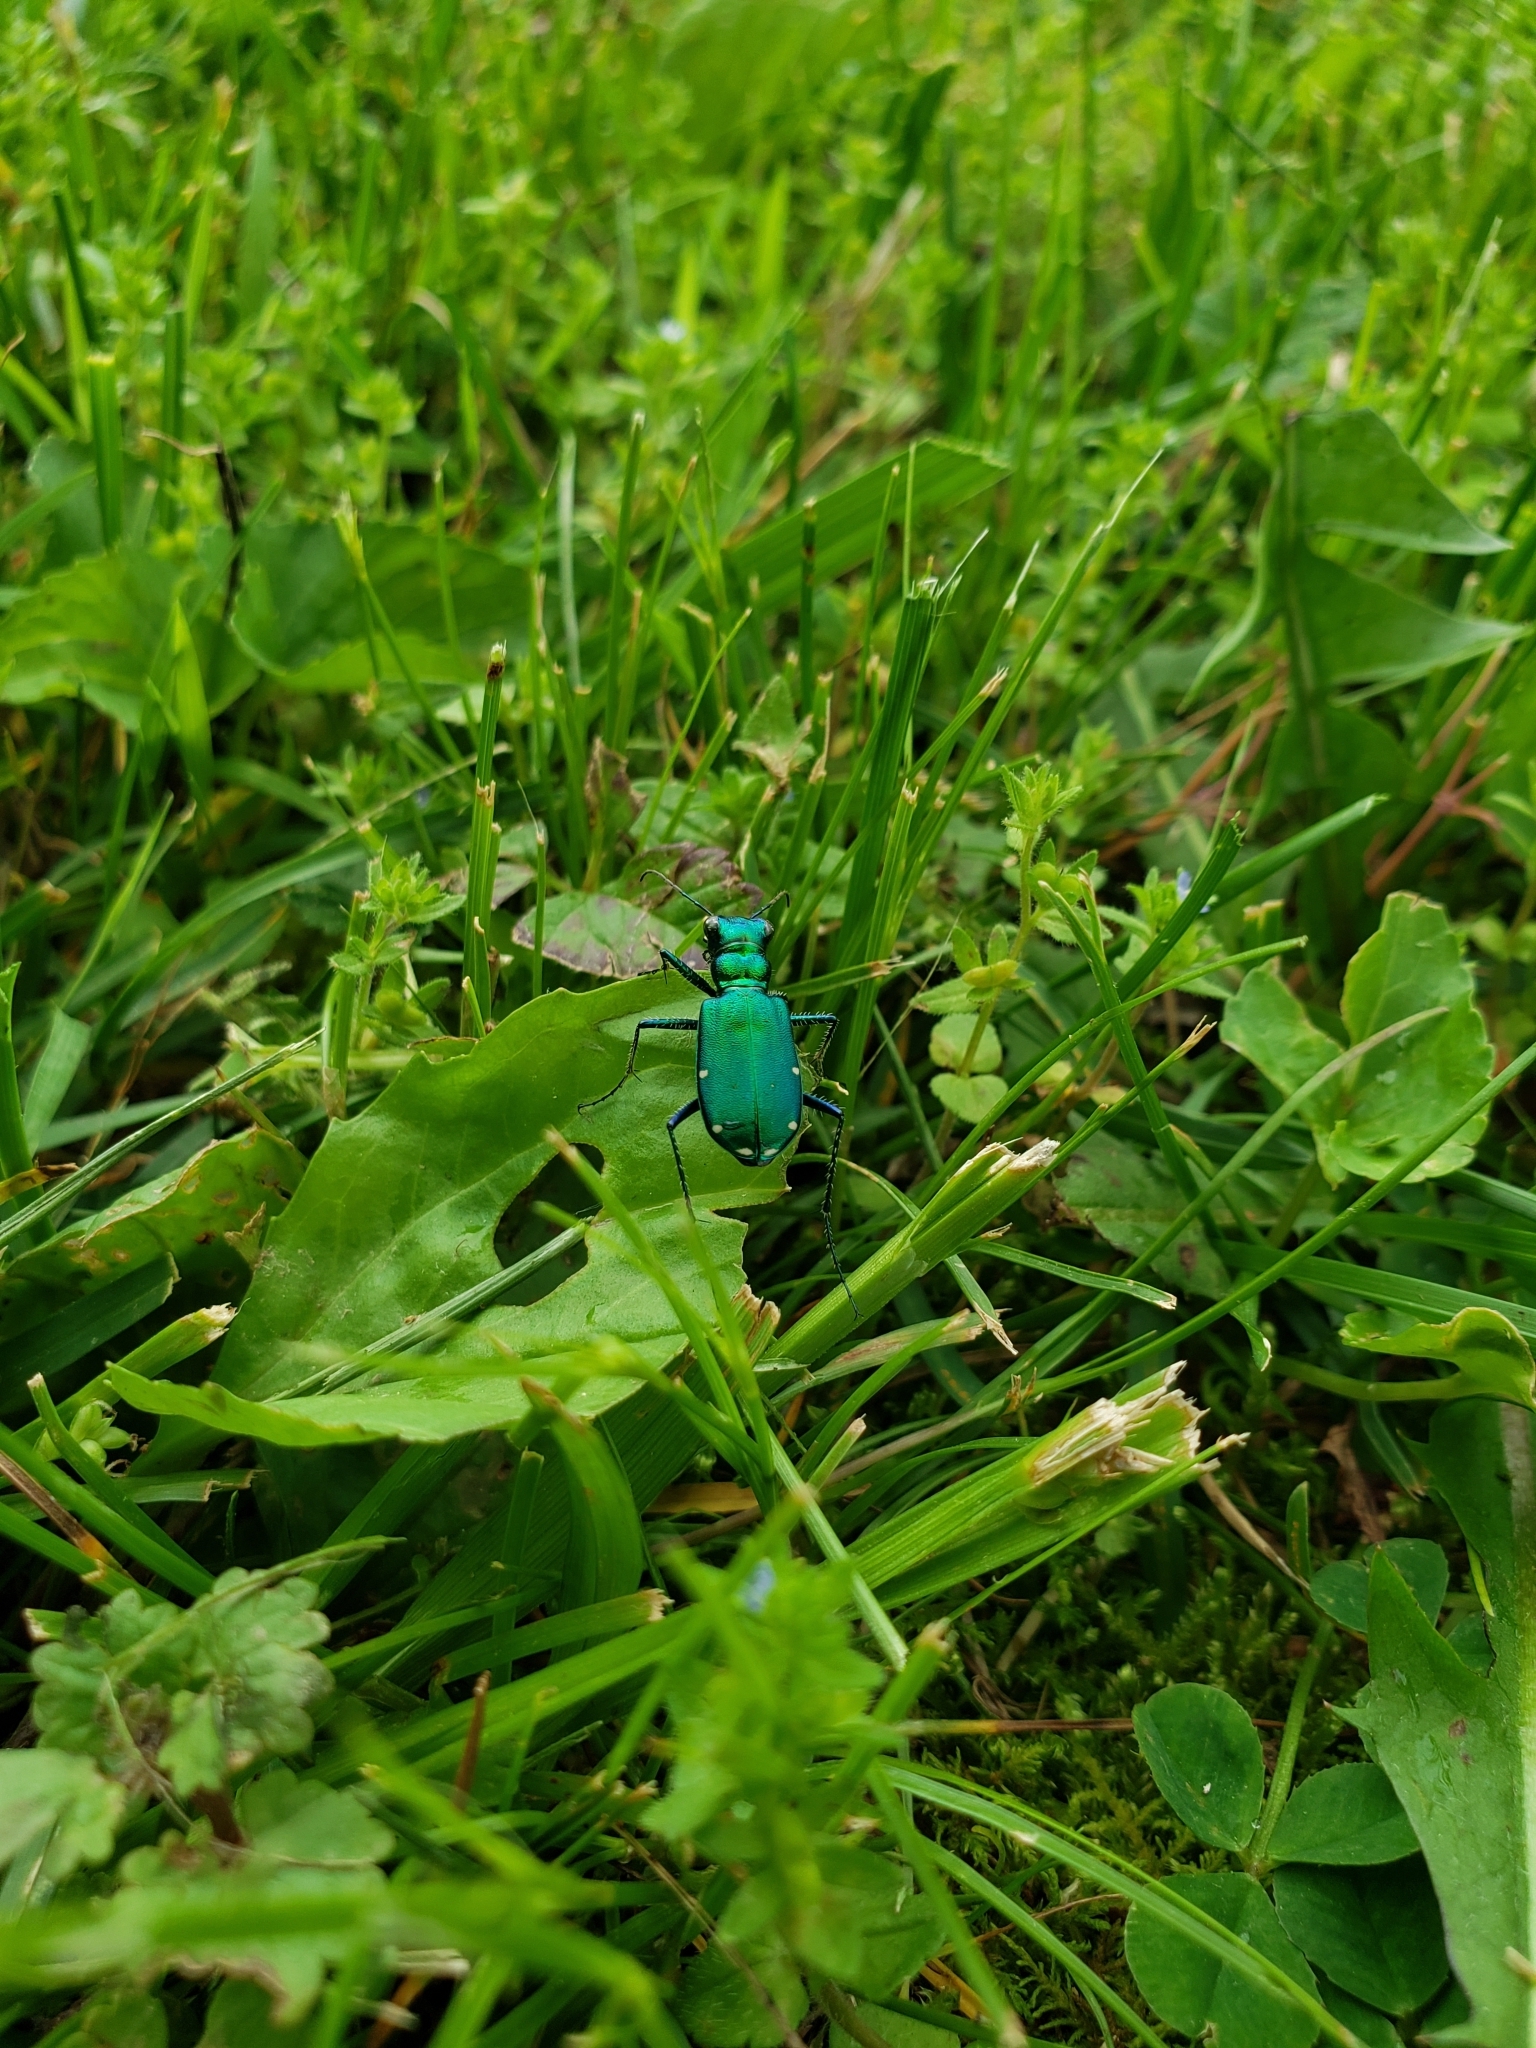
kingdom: Animalia
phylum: Arthropoda
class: Insecta
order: Coleoptera
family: Carabidae
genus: Cicindela
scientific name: Cicindela sexguttata
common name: Six-spotted tiger beetle
